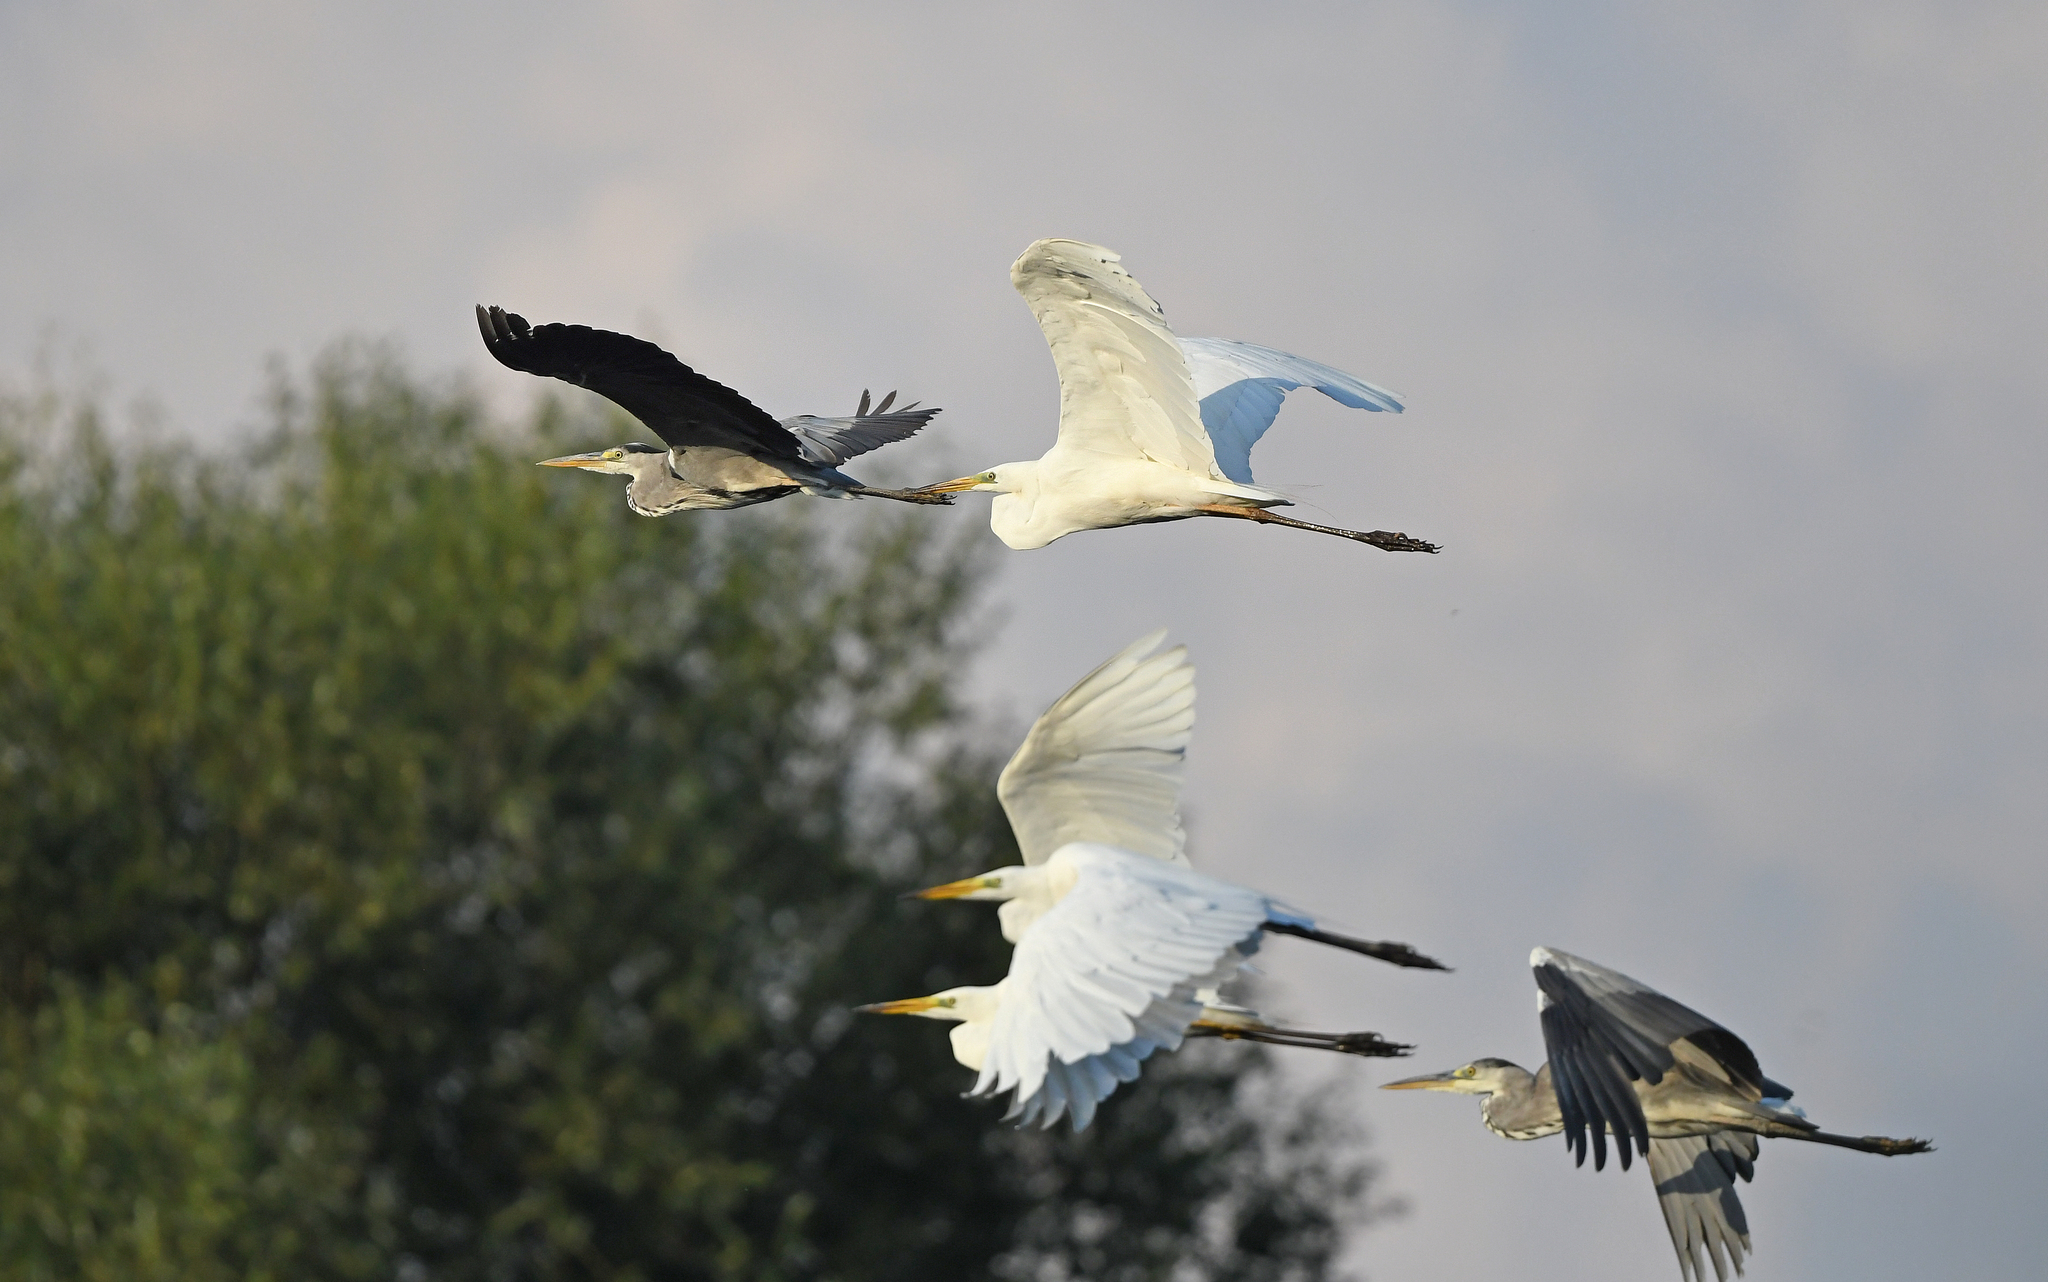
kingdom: Animalia
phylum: Chordata
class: Aves
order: Pelecaniformes
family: Ardeidae
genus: Ardea
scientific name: Ardea alba
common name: Great egret
